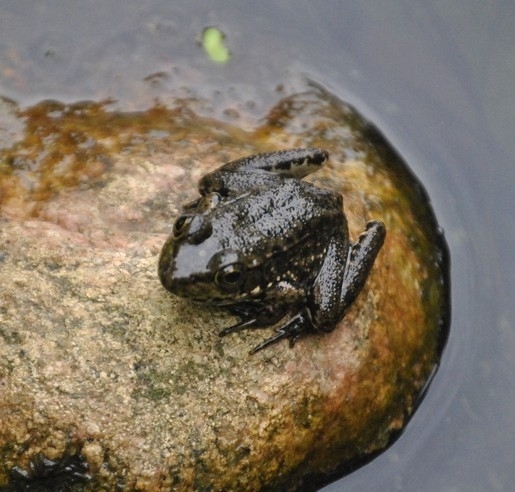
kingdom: Animalia
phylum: Chordata
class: Amphibia
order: Anura
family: Ranidae
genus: Lithobates
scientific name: Lithobates clamitans
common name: Green frog
